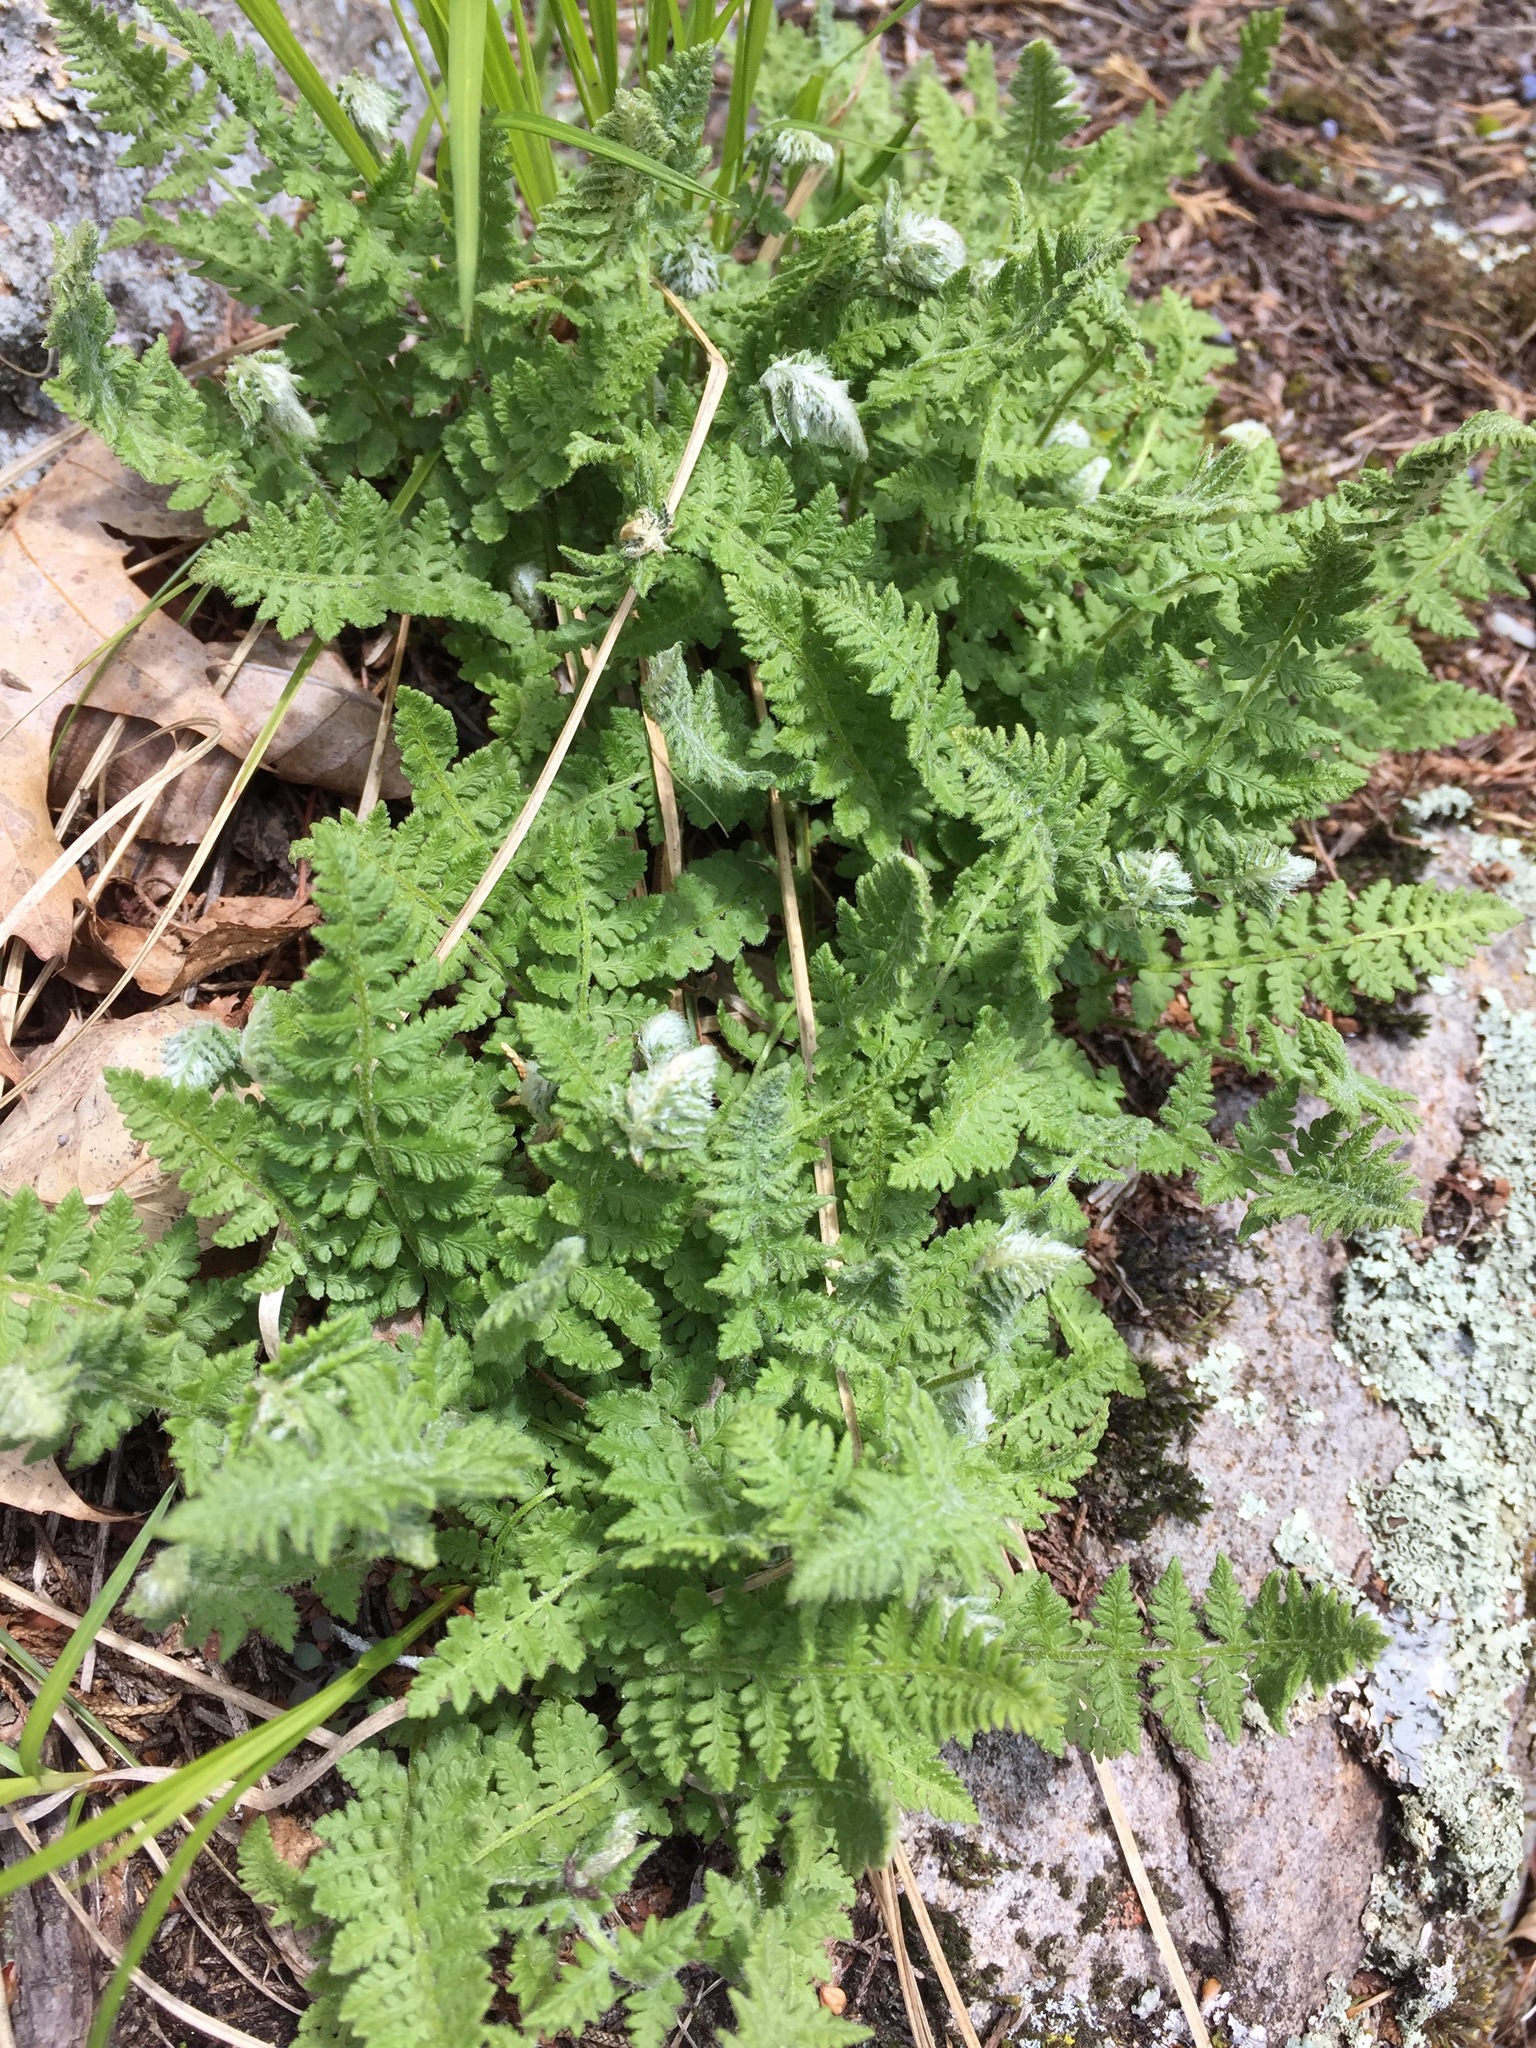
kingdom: Plantae
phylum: Tracheophyta
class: Polypodiopsida
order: Polypodiales
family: Woodsiaceae
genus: Woodsia
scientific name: Woodsia ilvensis
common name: Fragrant woodsia
